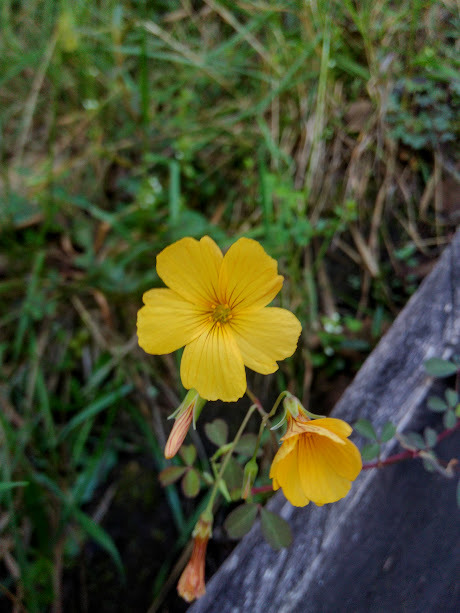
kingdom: Plantae
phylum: Tracheophyta
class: Magnoliopsida
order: Oxalidales
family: Oxalidaceae
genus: Oxalis
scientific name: Oxalis medicaginea
